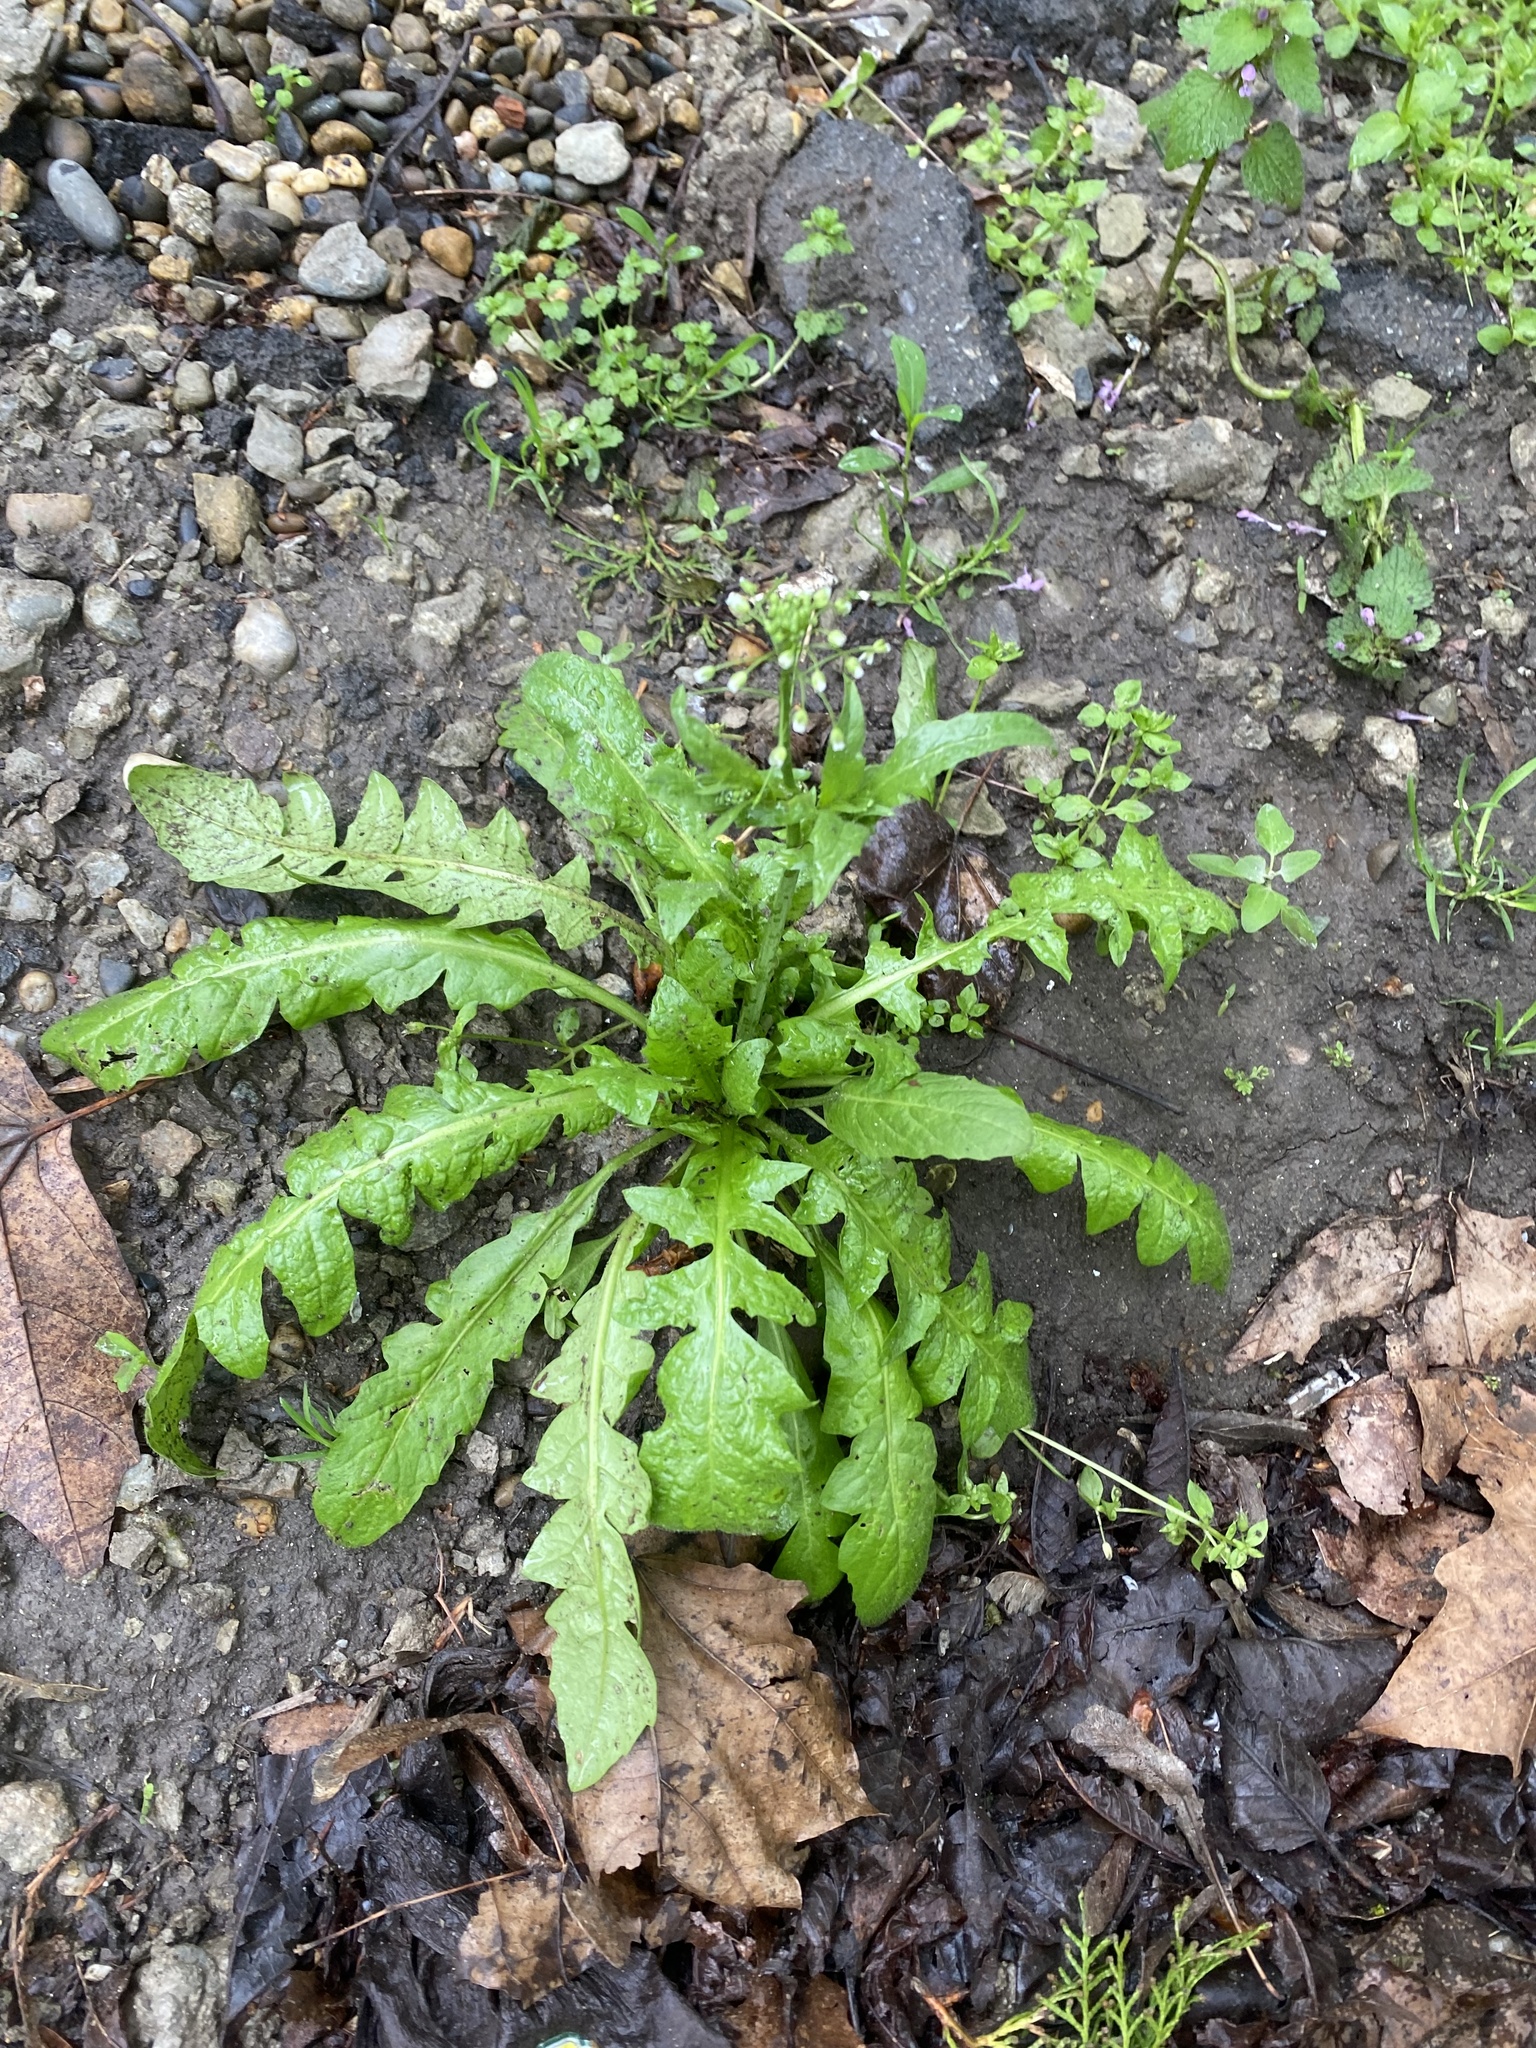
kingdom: Plantae
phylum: Tracheophyta
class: Magnoliopsida
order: Brassicales
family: Brassicaceae
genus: Capsella
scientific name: Capsella bursa-pastoris
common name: Shepherd's purse
